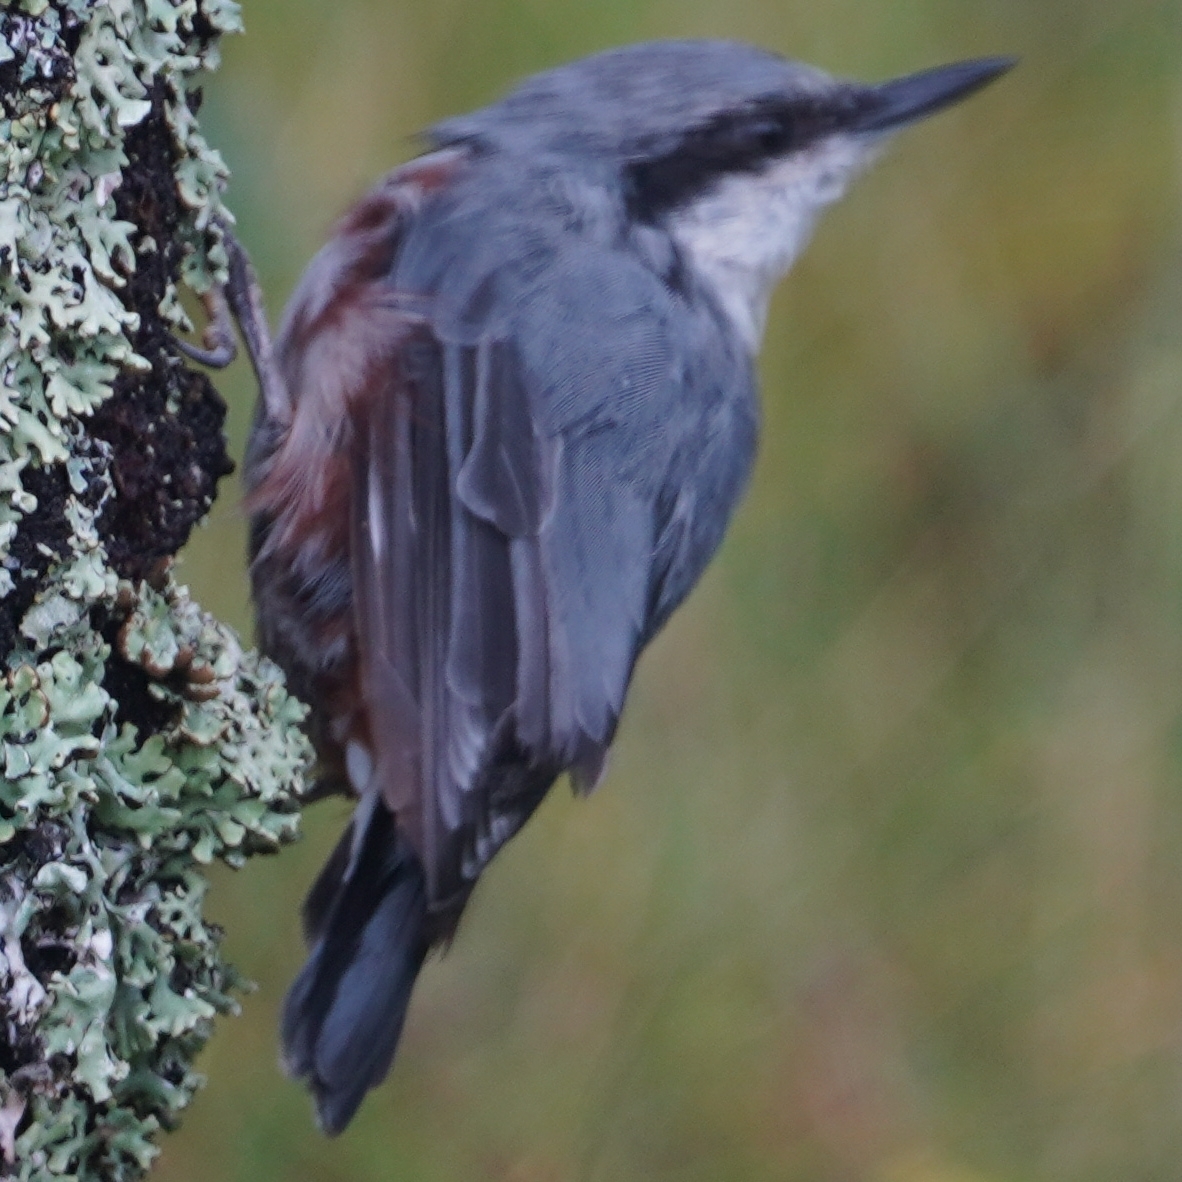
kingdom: Animalia
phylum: Chordata
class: Aves
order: Passeriformes
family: Sittidae
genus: Sitta
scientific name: Sitta europaea
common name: Eurasian nuthatch
